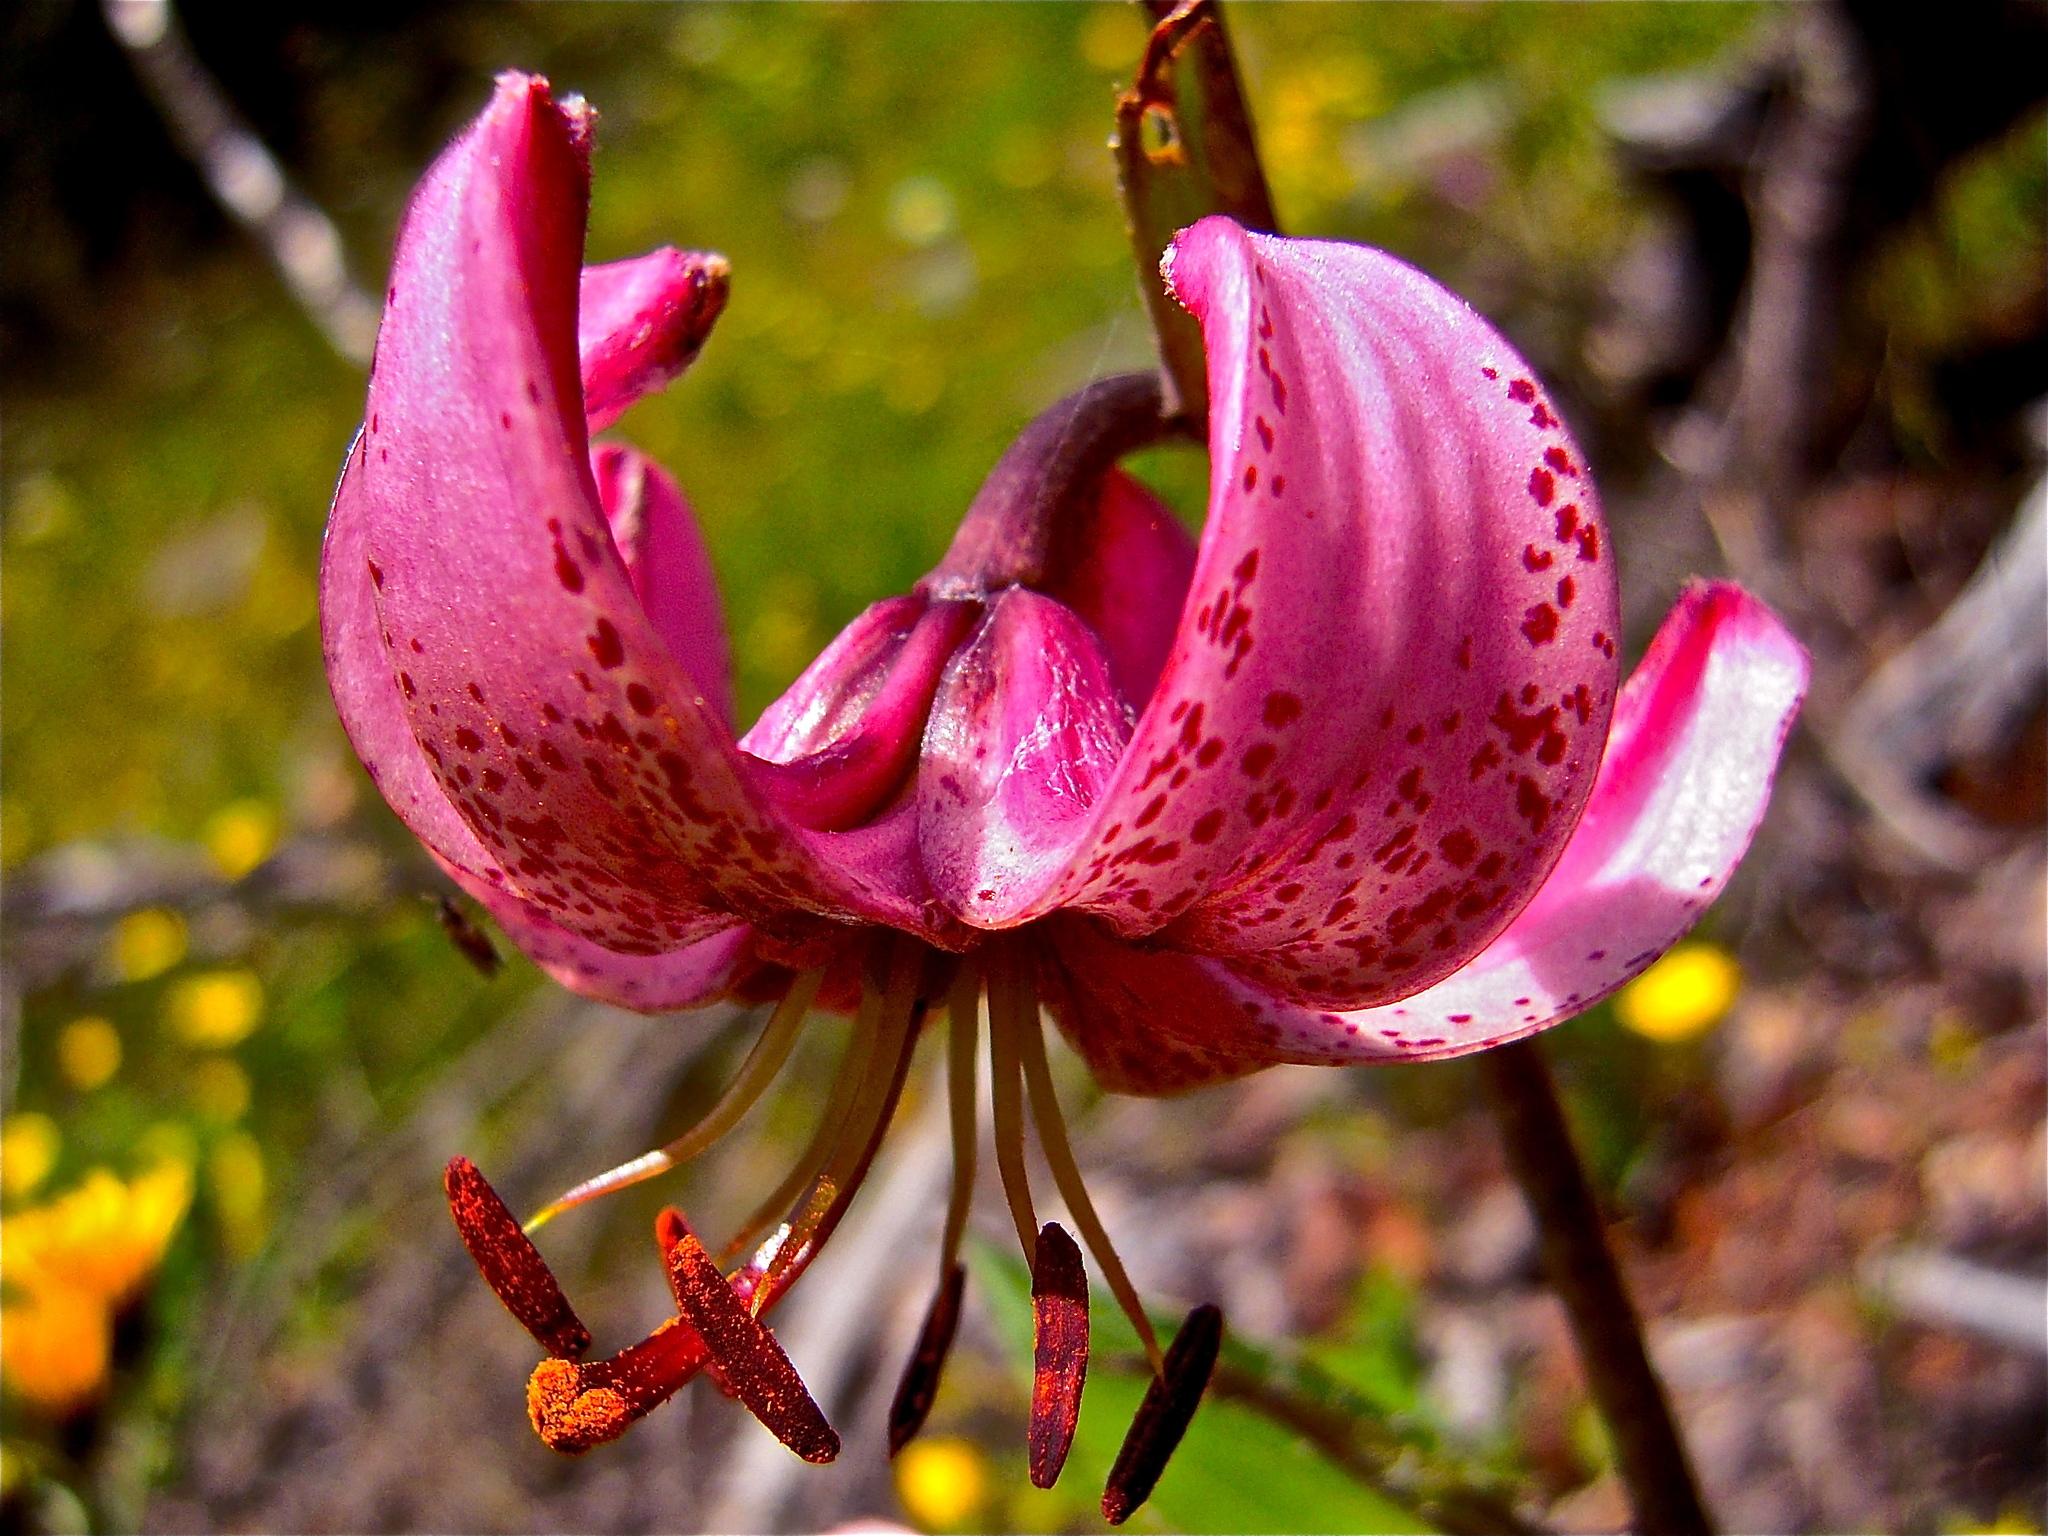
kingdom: Plantae
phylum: Tracheophyta
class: Liliopsida
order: Liliales
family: Liliaceae
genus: Lilium
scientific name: Lilium martagon
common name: Martagon lily
